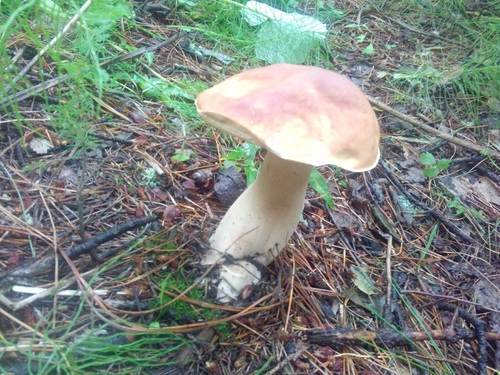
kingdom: Fungi
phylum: Basidiomycota
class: Agaricomycetes
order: Boletales
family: Boletaceae
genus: Boletus
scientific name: Boletus edulis
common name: Cep
